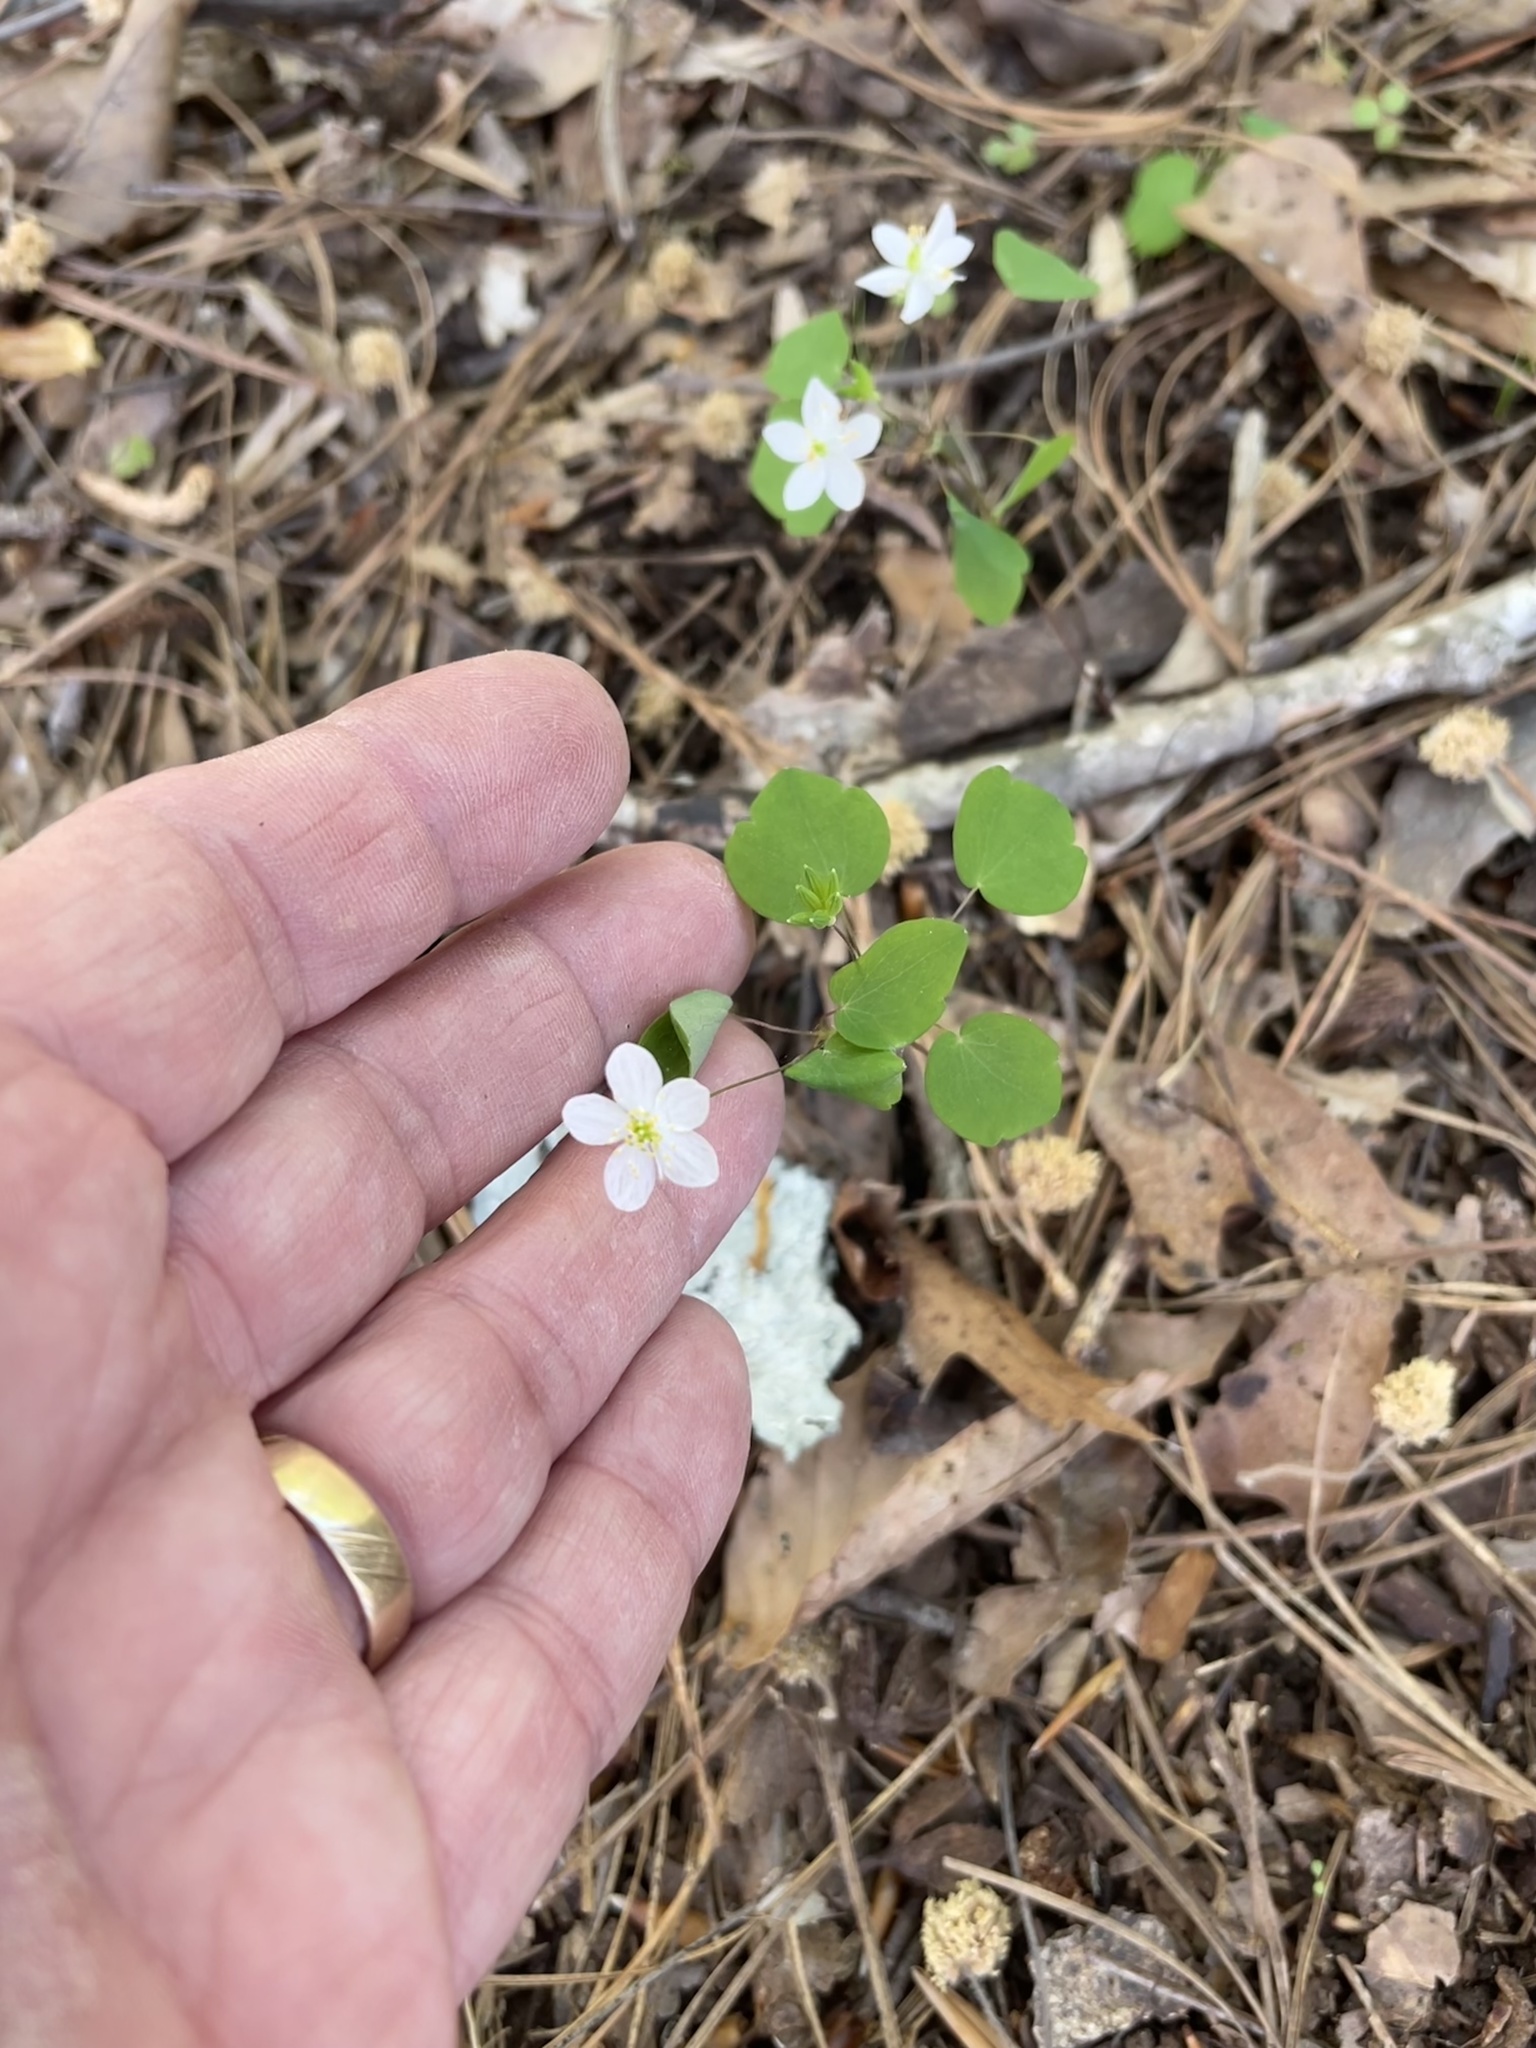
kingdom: Plantae
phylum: Tracheophyta
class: Magnoliopsida
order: Ranunculales
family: Ranunculaceae
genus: Thalictrum
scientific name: Thalictrum thalictroides
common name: Rue-anemone
